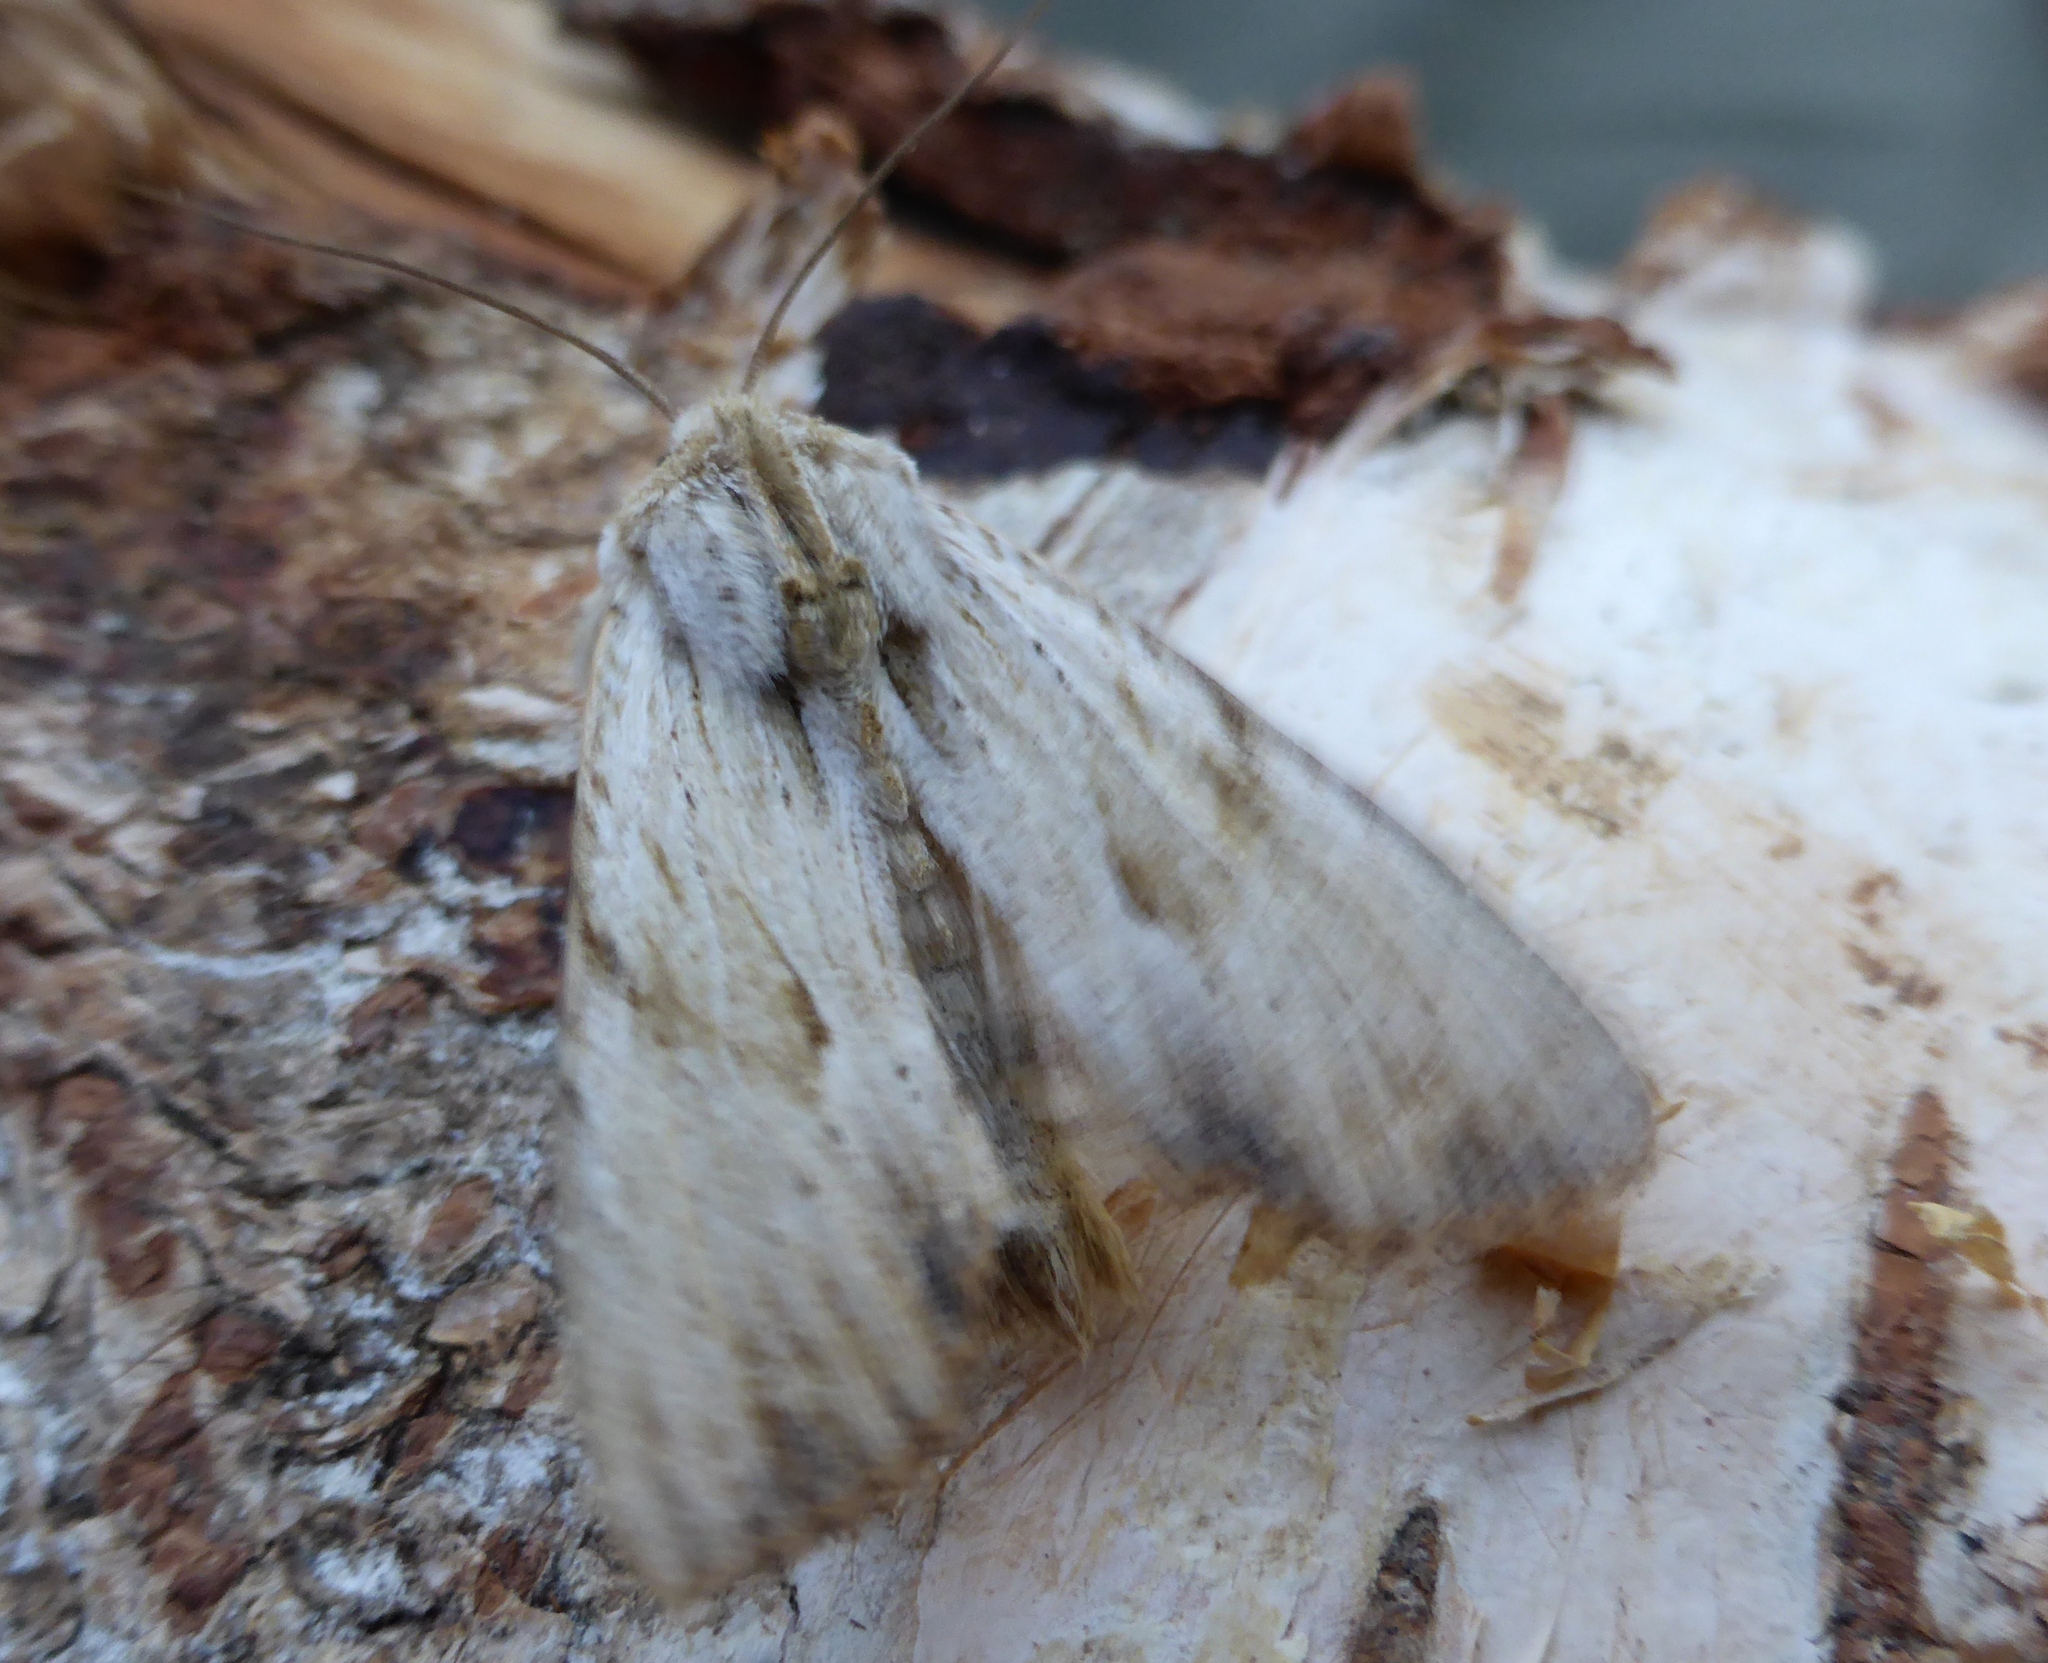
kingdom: Animalia
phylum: Arthropoda
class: Insecta
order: Lepidoptera
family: Noctuidae
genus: Apamea
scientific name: Apamea lithoxylaea
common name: Light arches
